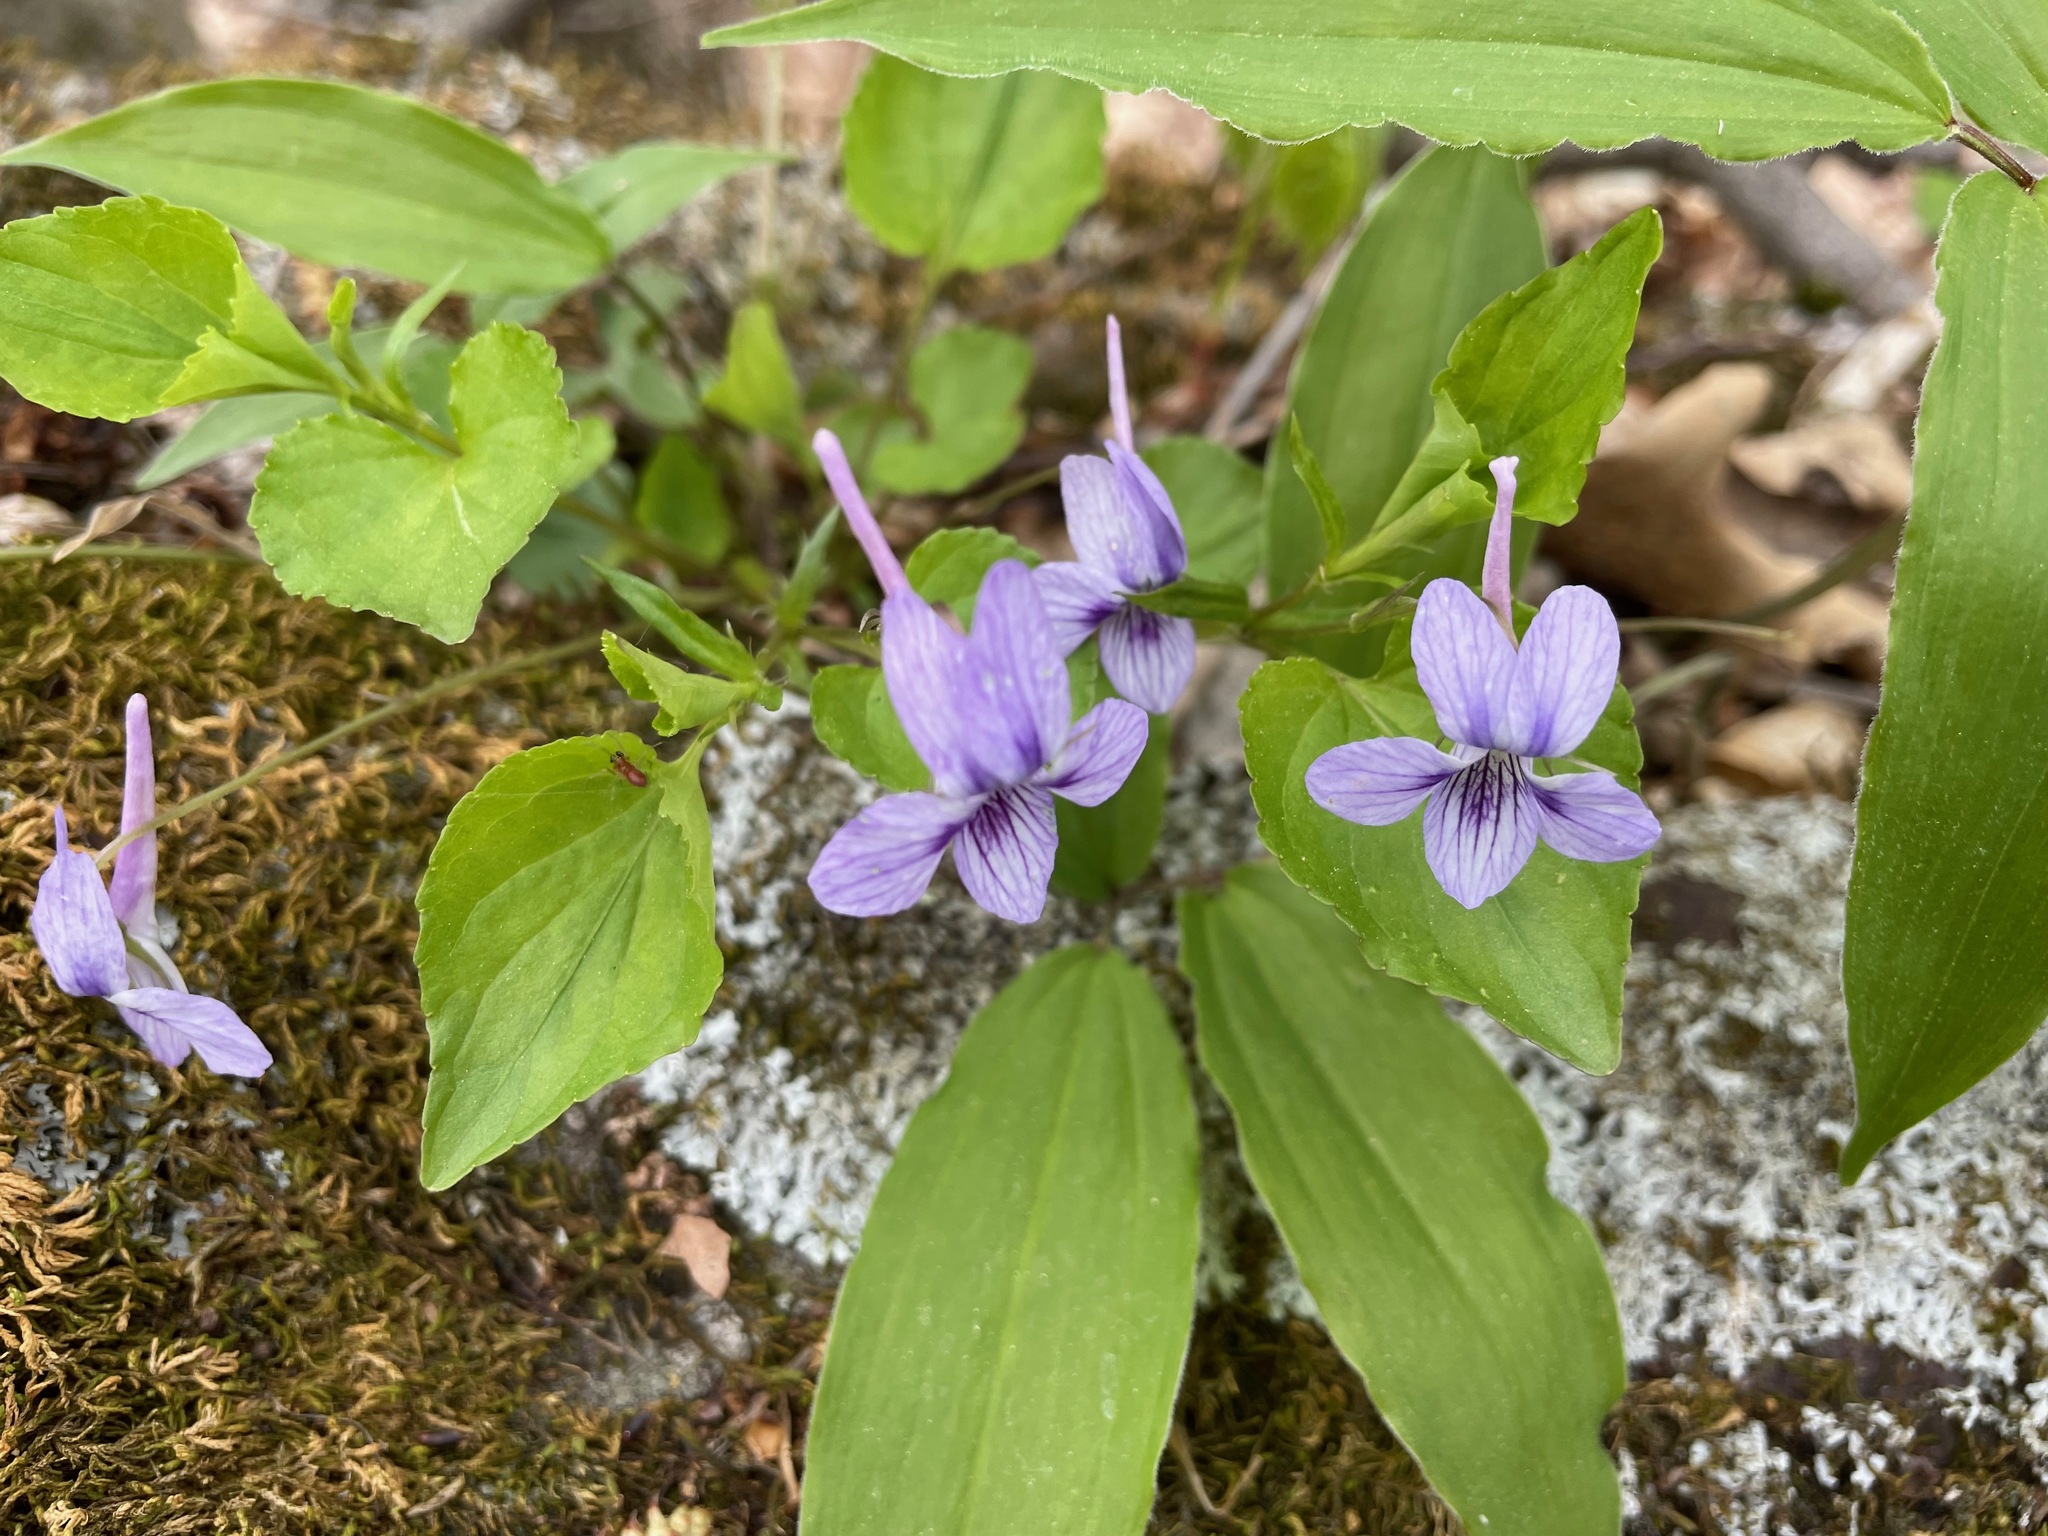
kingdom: Plantae
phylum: Tracheophyta
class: Magnoliopsida
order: Malpighiales
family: Violaceae
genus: Viola
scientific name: Viola rostrata
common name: Long-spur violet
